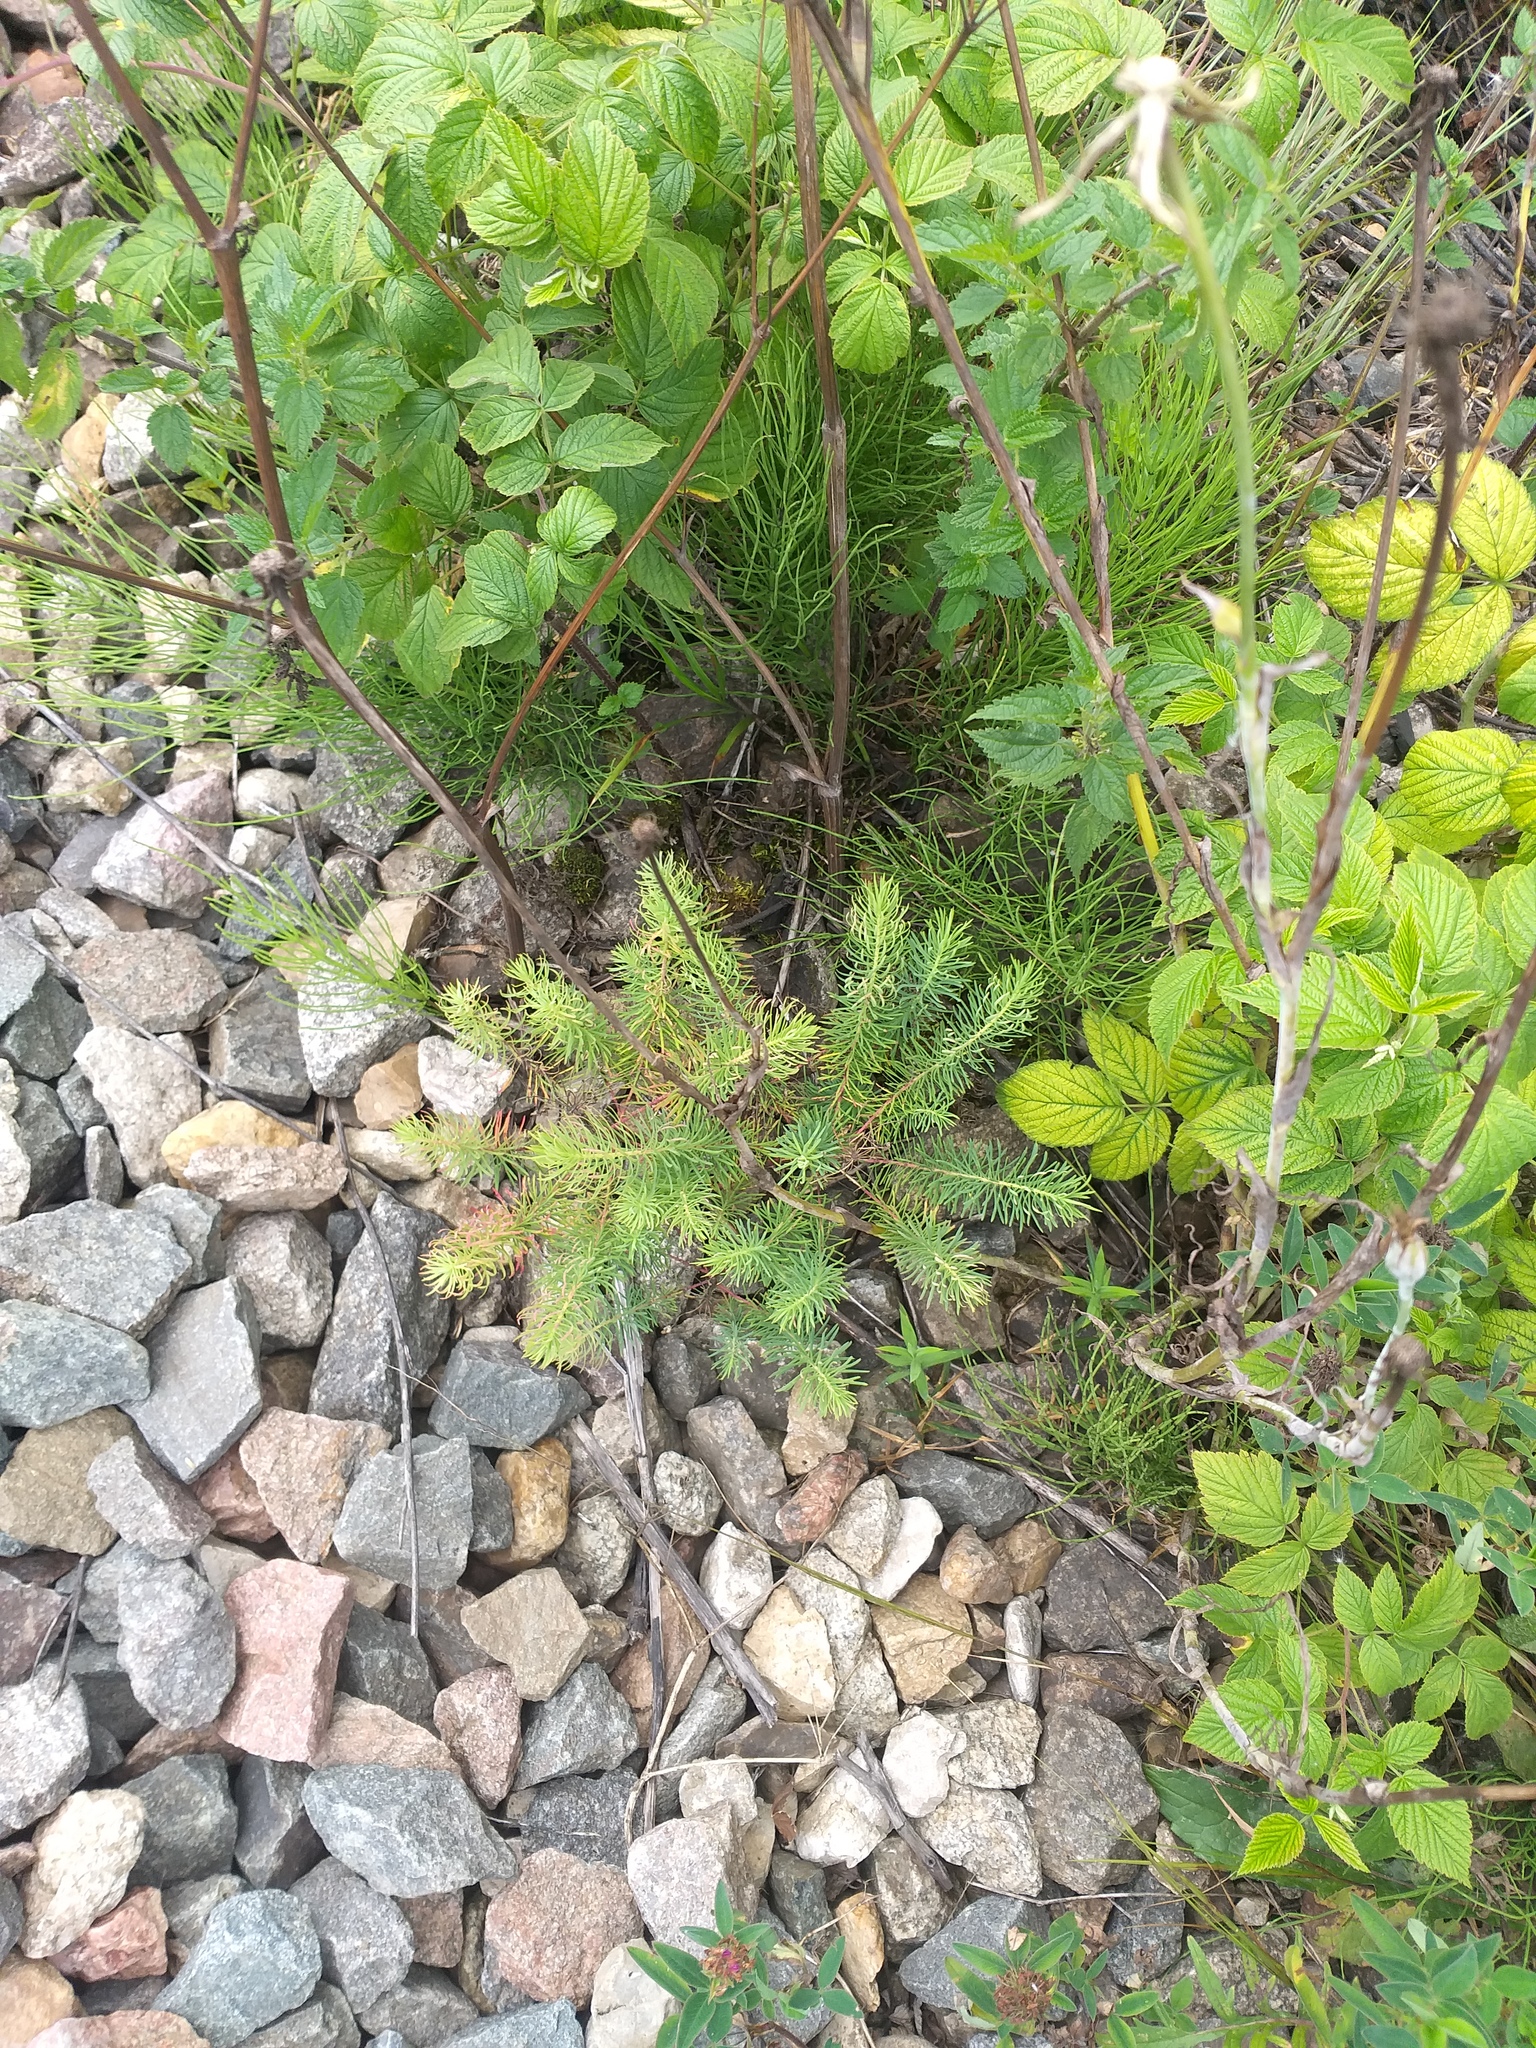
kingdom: Plantae
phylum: Tracheophyta
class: Magnoliopsida
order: Malpighiales
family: Euphorbiaceae
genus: Euphorbia
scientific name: Euphorbia cyparissias
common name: Cypress spurge
